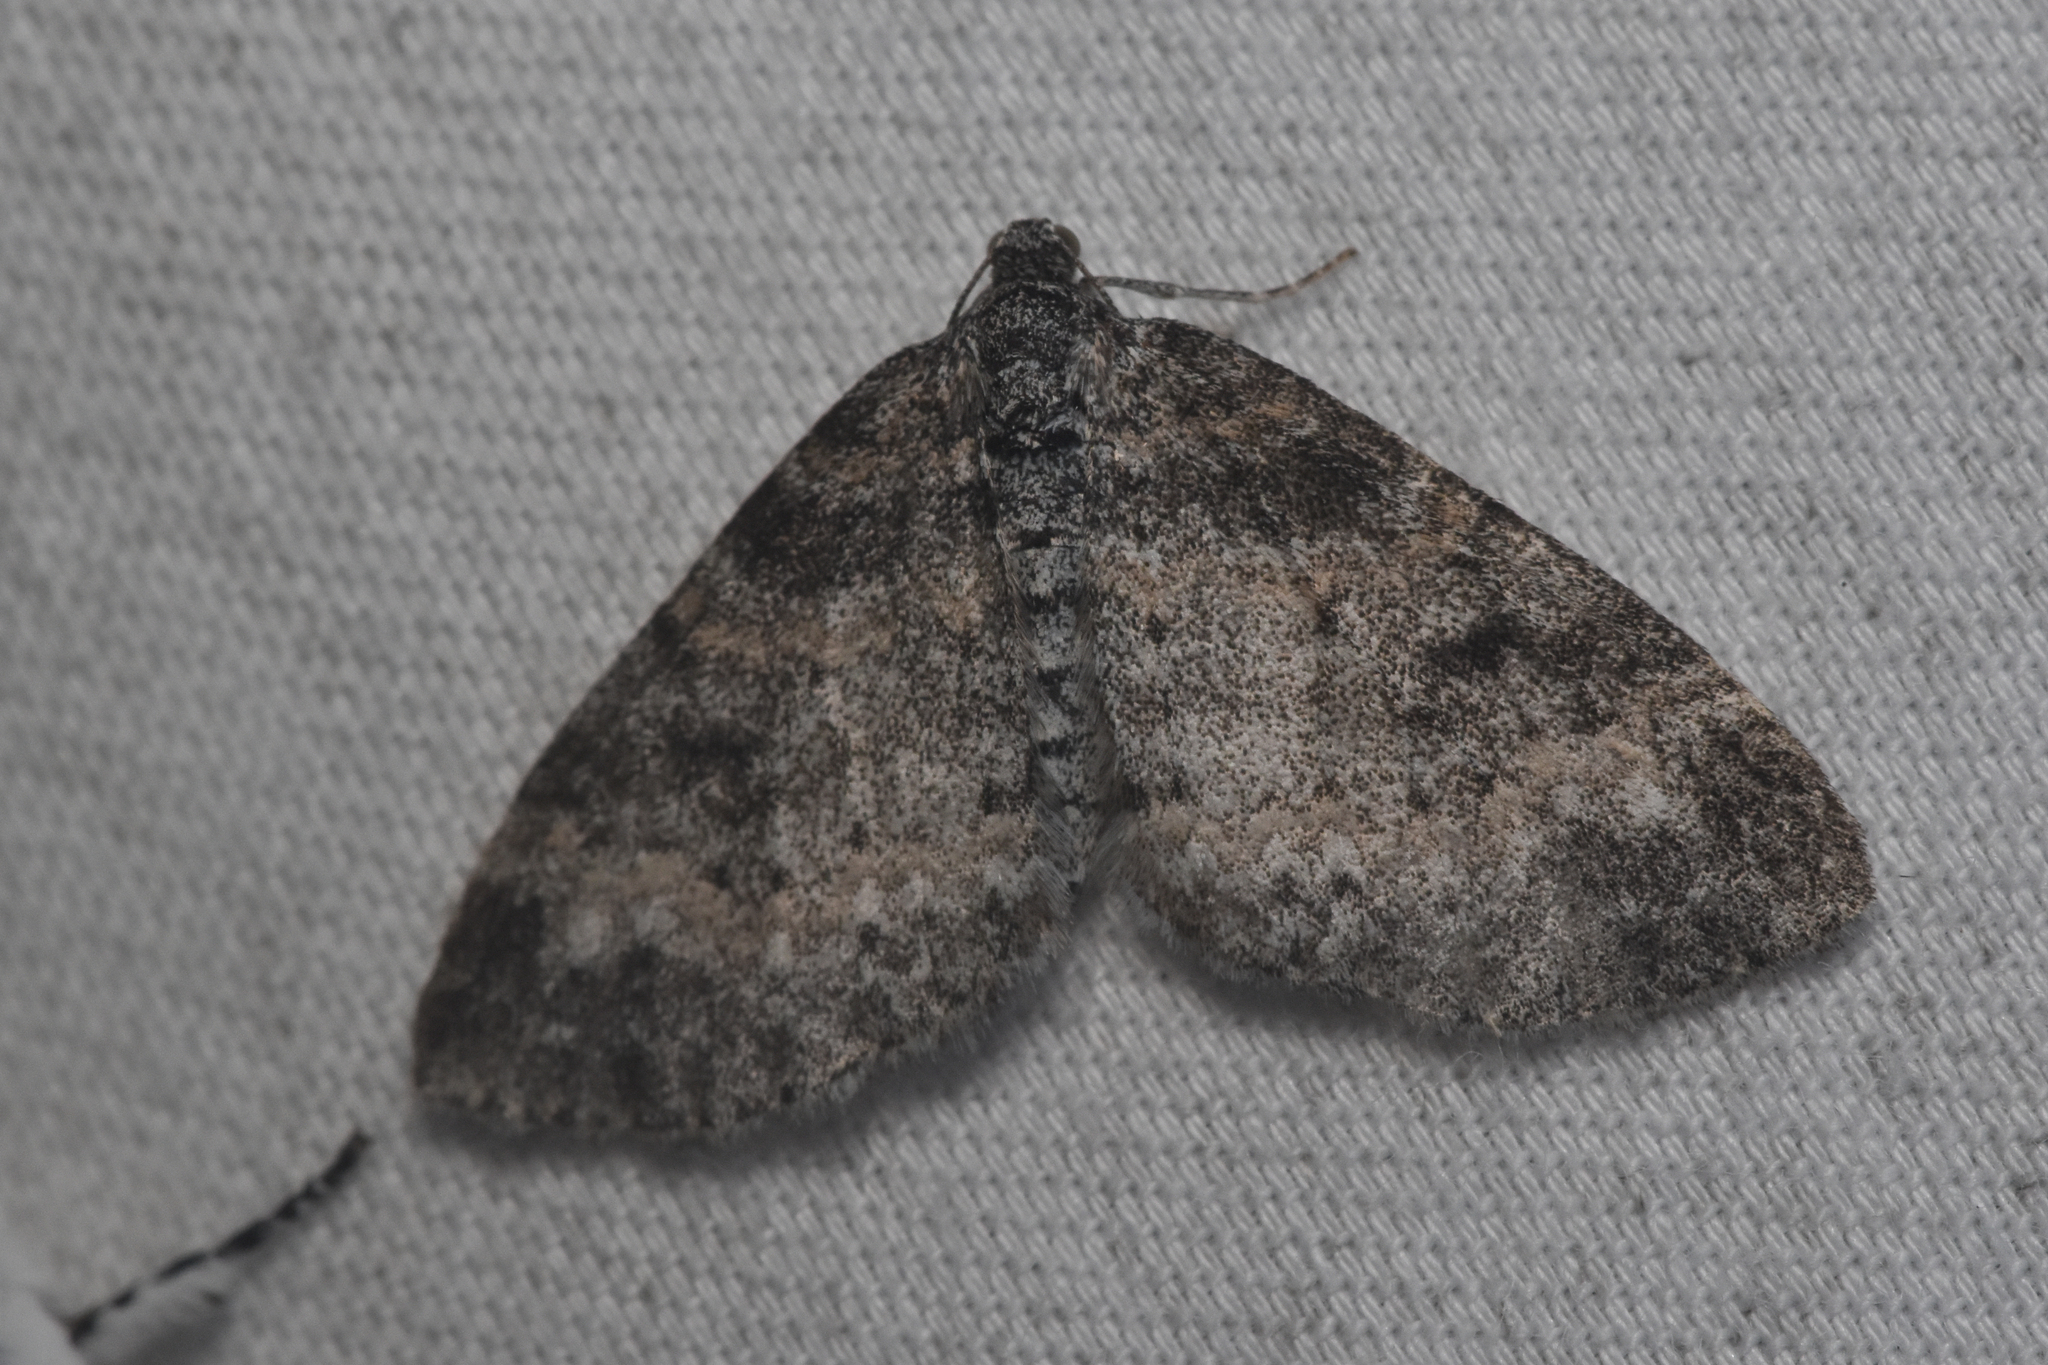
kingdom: Animalia
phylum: Arthropoda
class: Insecta
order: Lepidoptera
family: Geometridae
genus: Lobophora
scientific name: Lobophora nivigerata
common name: Powdered bigwing
